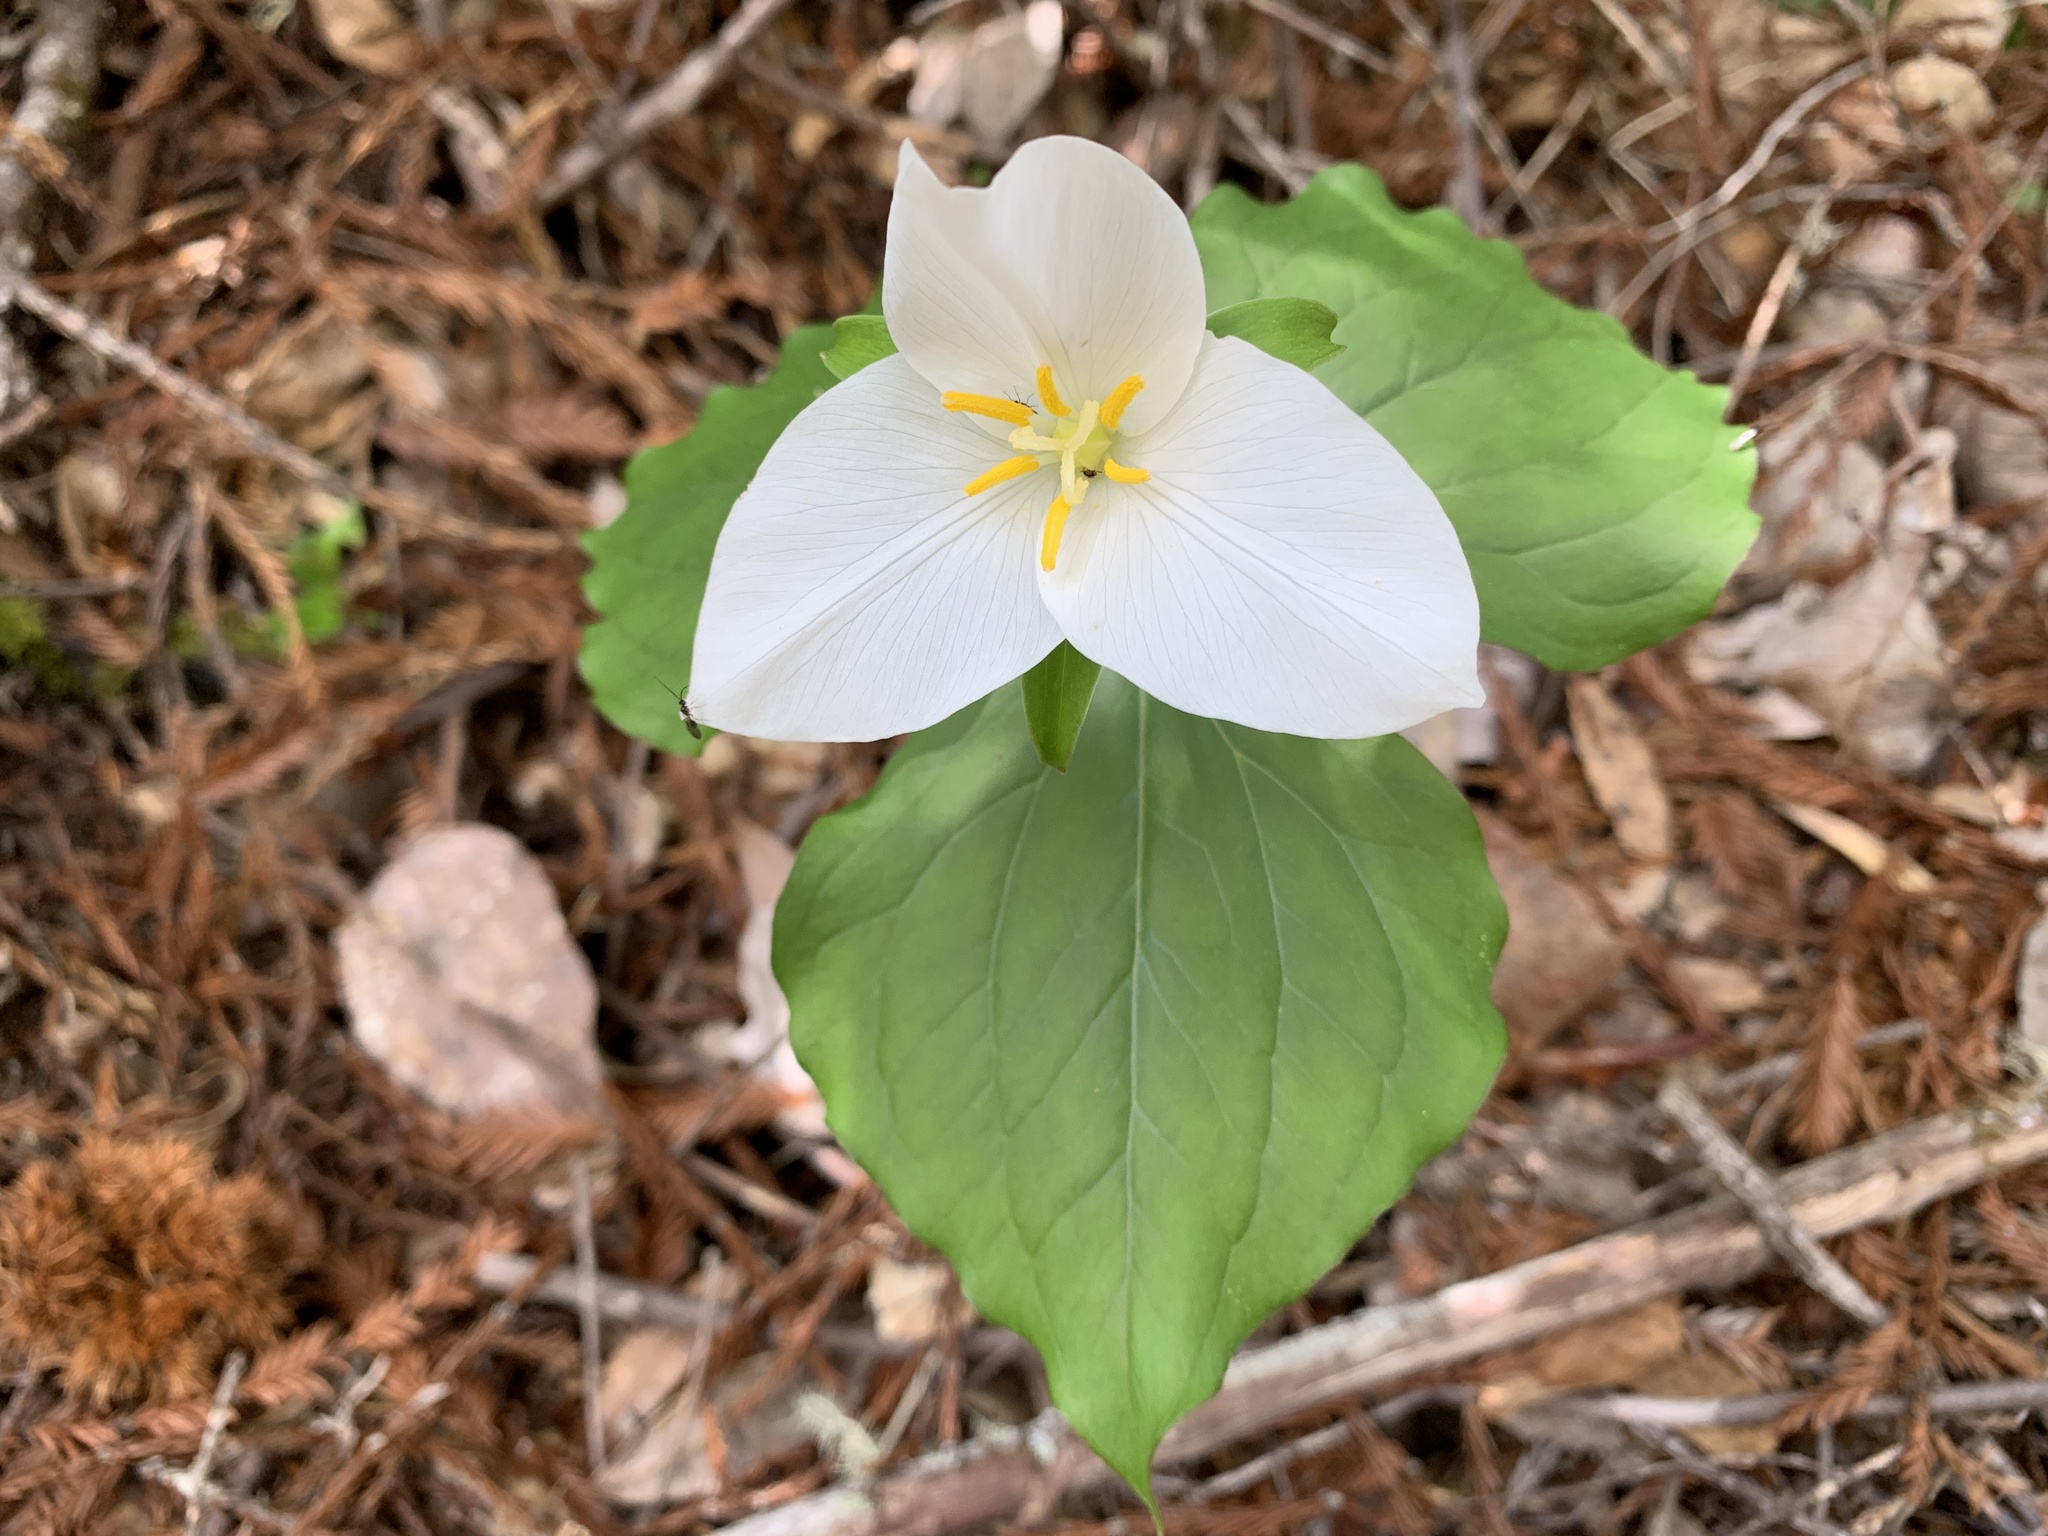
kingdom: Plantae
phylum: Tracheophyta
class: Liliopsida
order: Liliales
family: Melanthiaceae
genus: Trillium
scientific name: Trillium ovatum
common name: Pacific trillium
